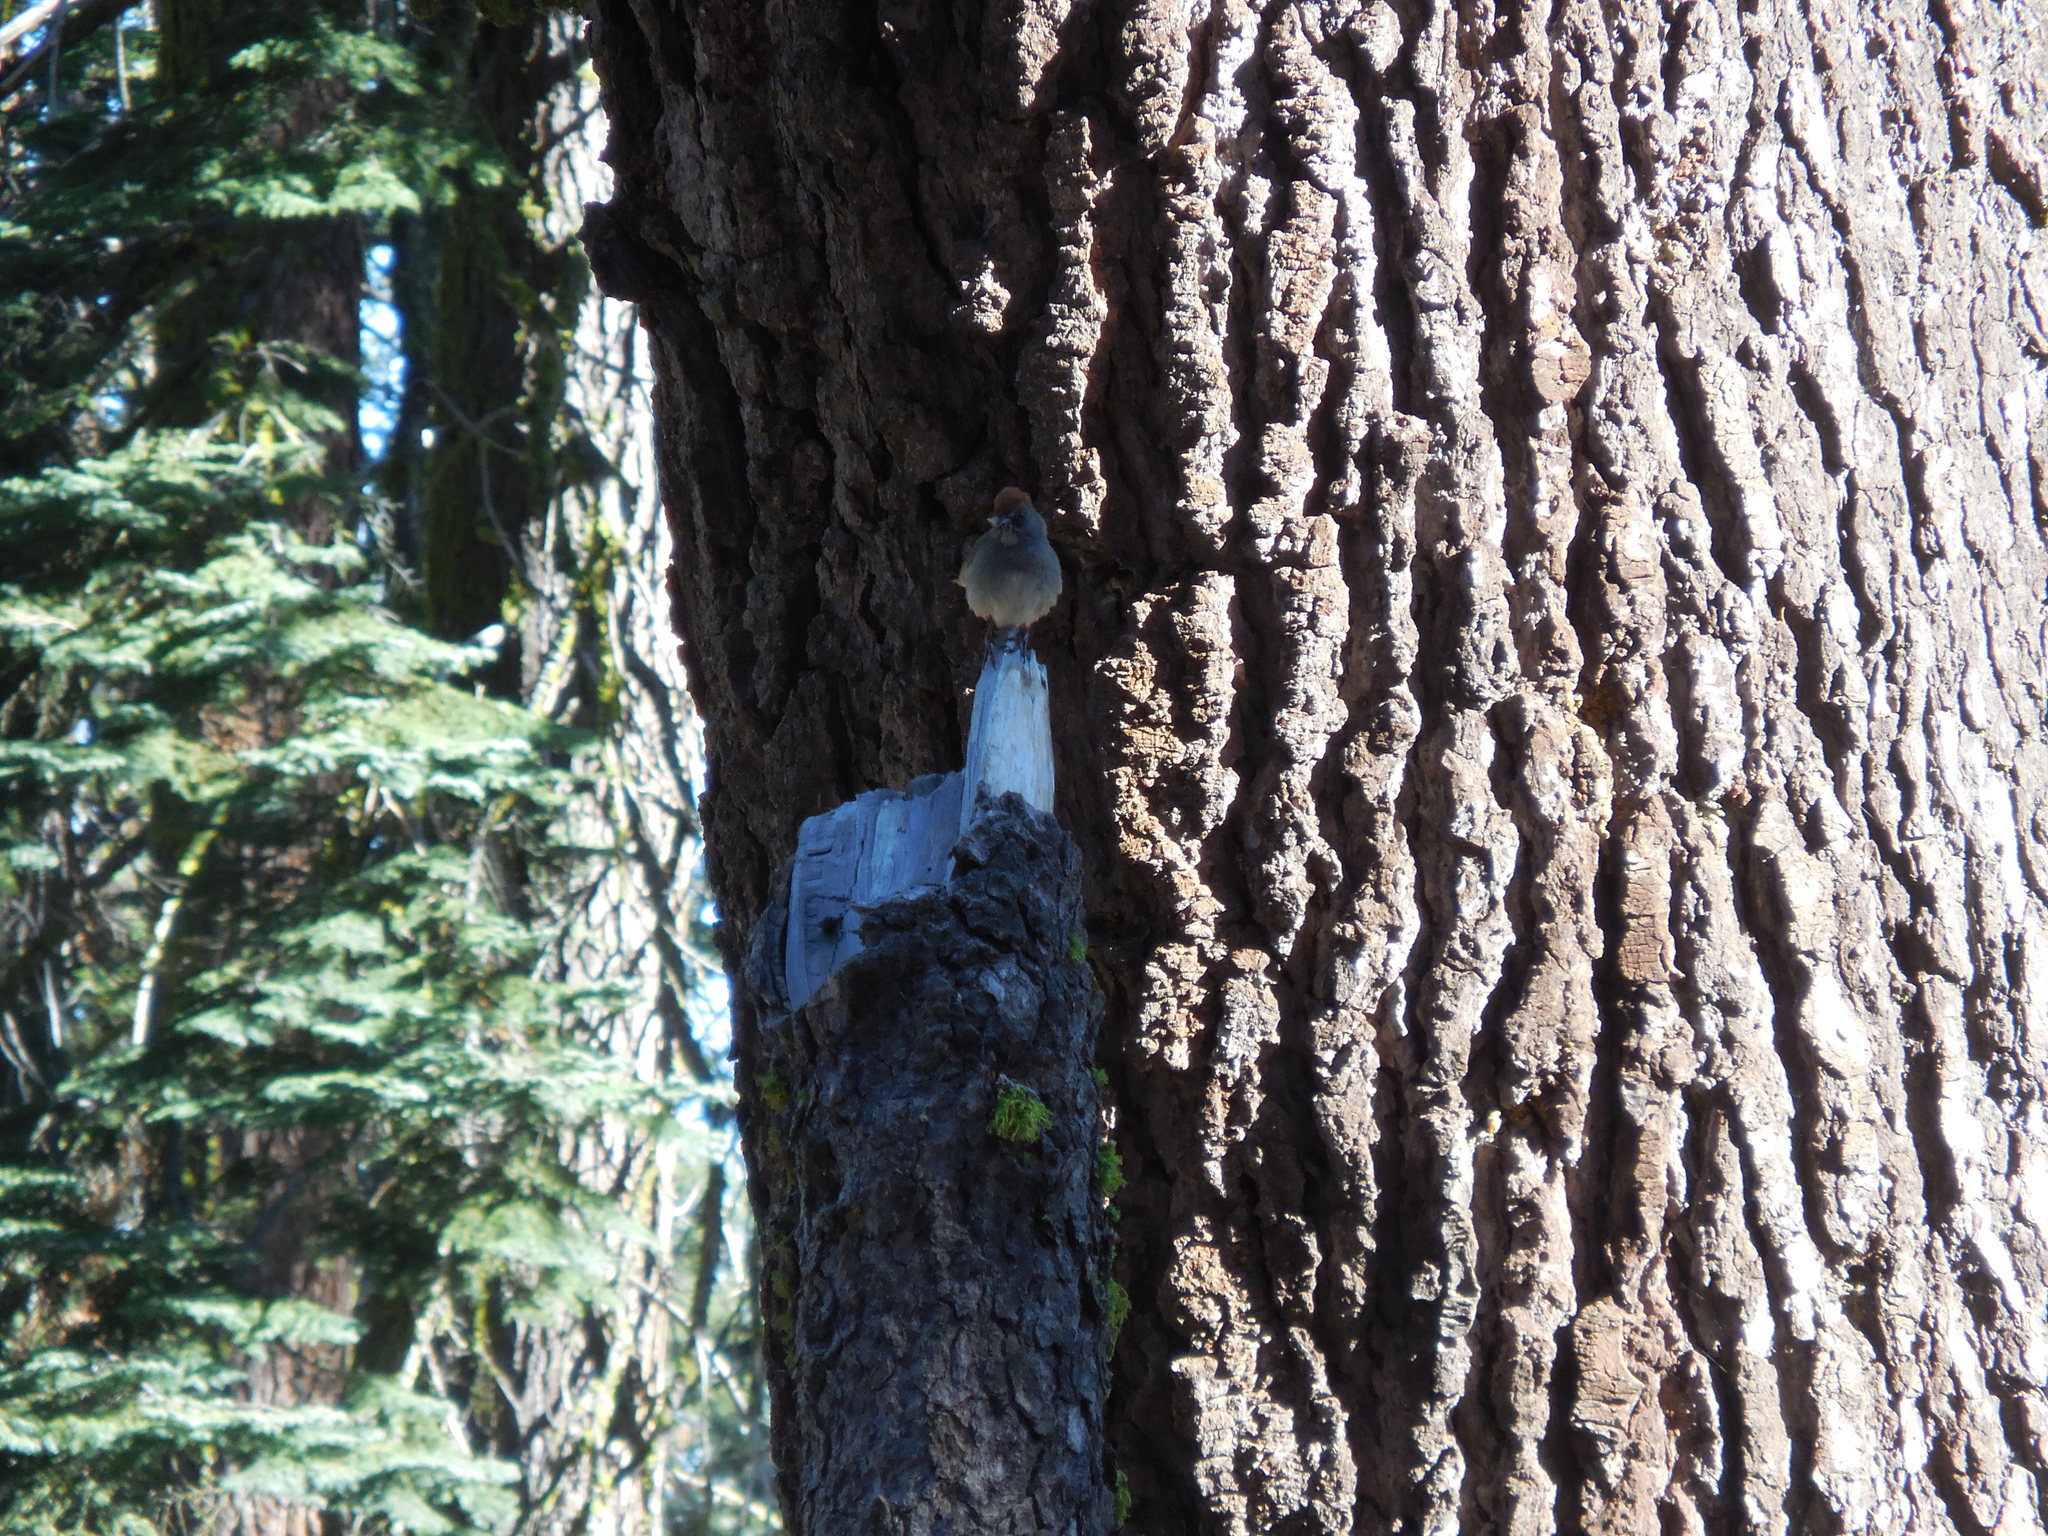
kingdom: Animalia
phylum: Chordata
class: Aves
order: Passeriformes
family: Passerellidae
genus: Pipilo
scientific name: Pipilo chlorurus
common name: Green-tailed towhee
